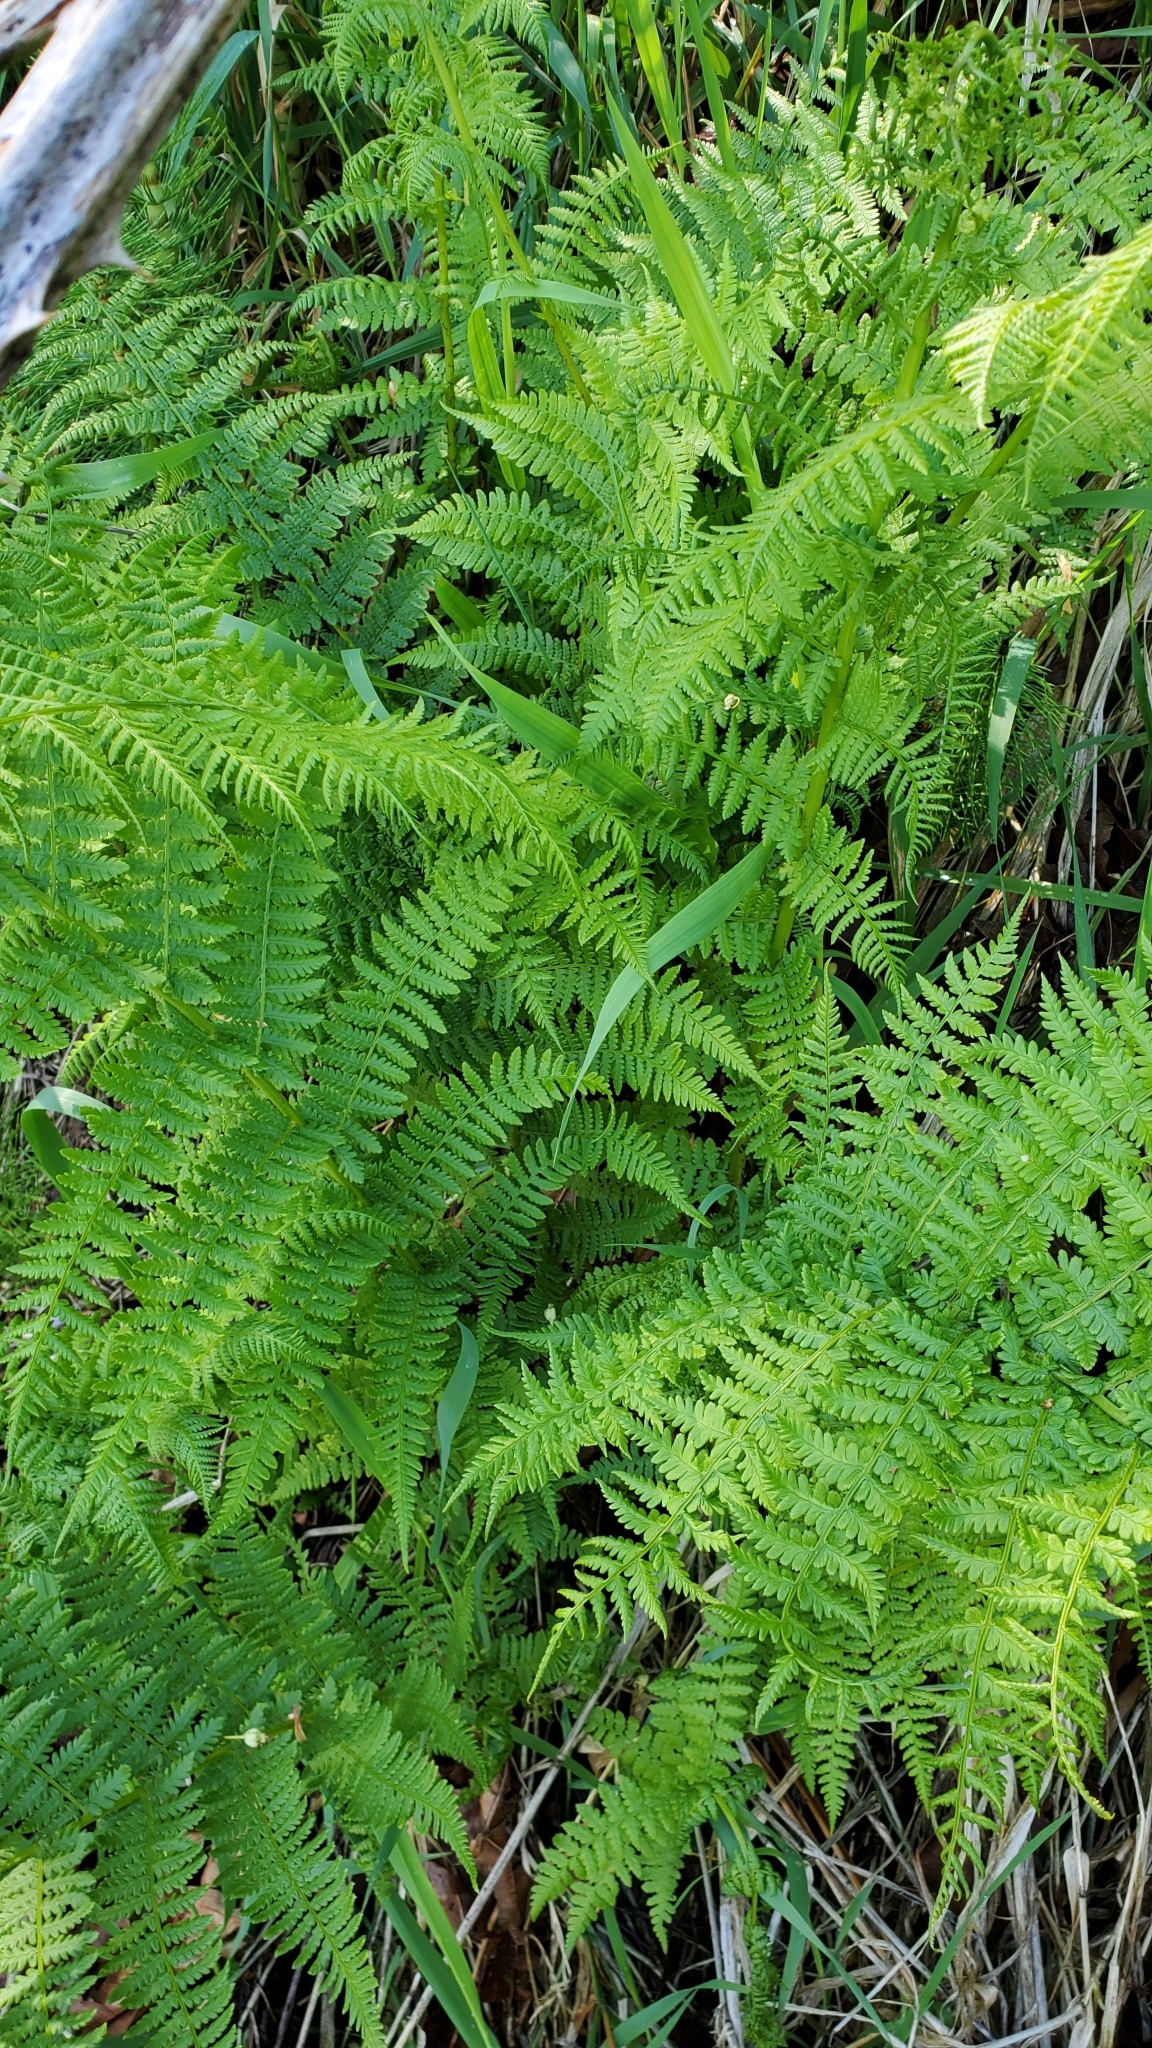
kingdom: Plantae
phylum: Tracheophyta
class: Polypodiopsida
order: Polypodiales
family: Dennstaedtiaceae
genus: Pteridium
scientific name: Pteridium aquilinum
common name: Bracken
